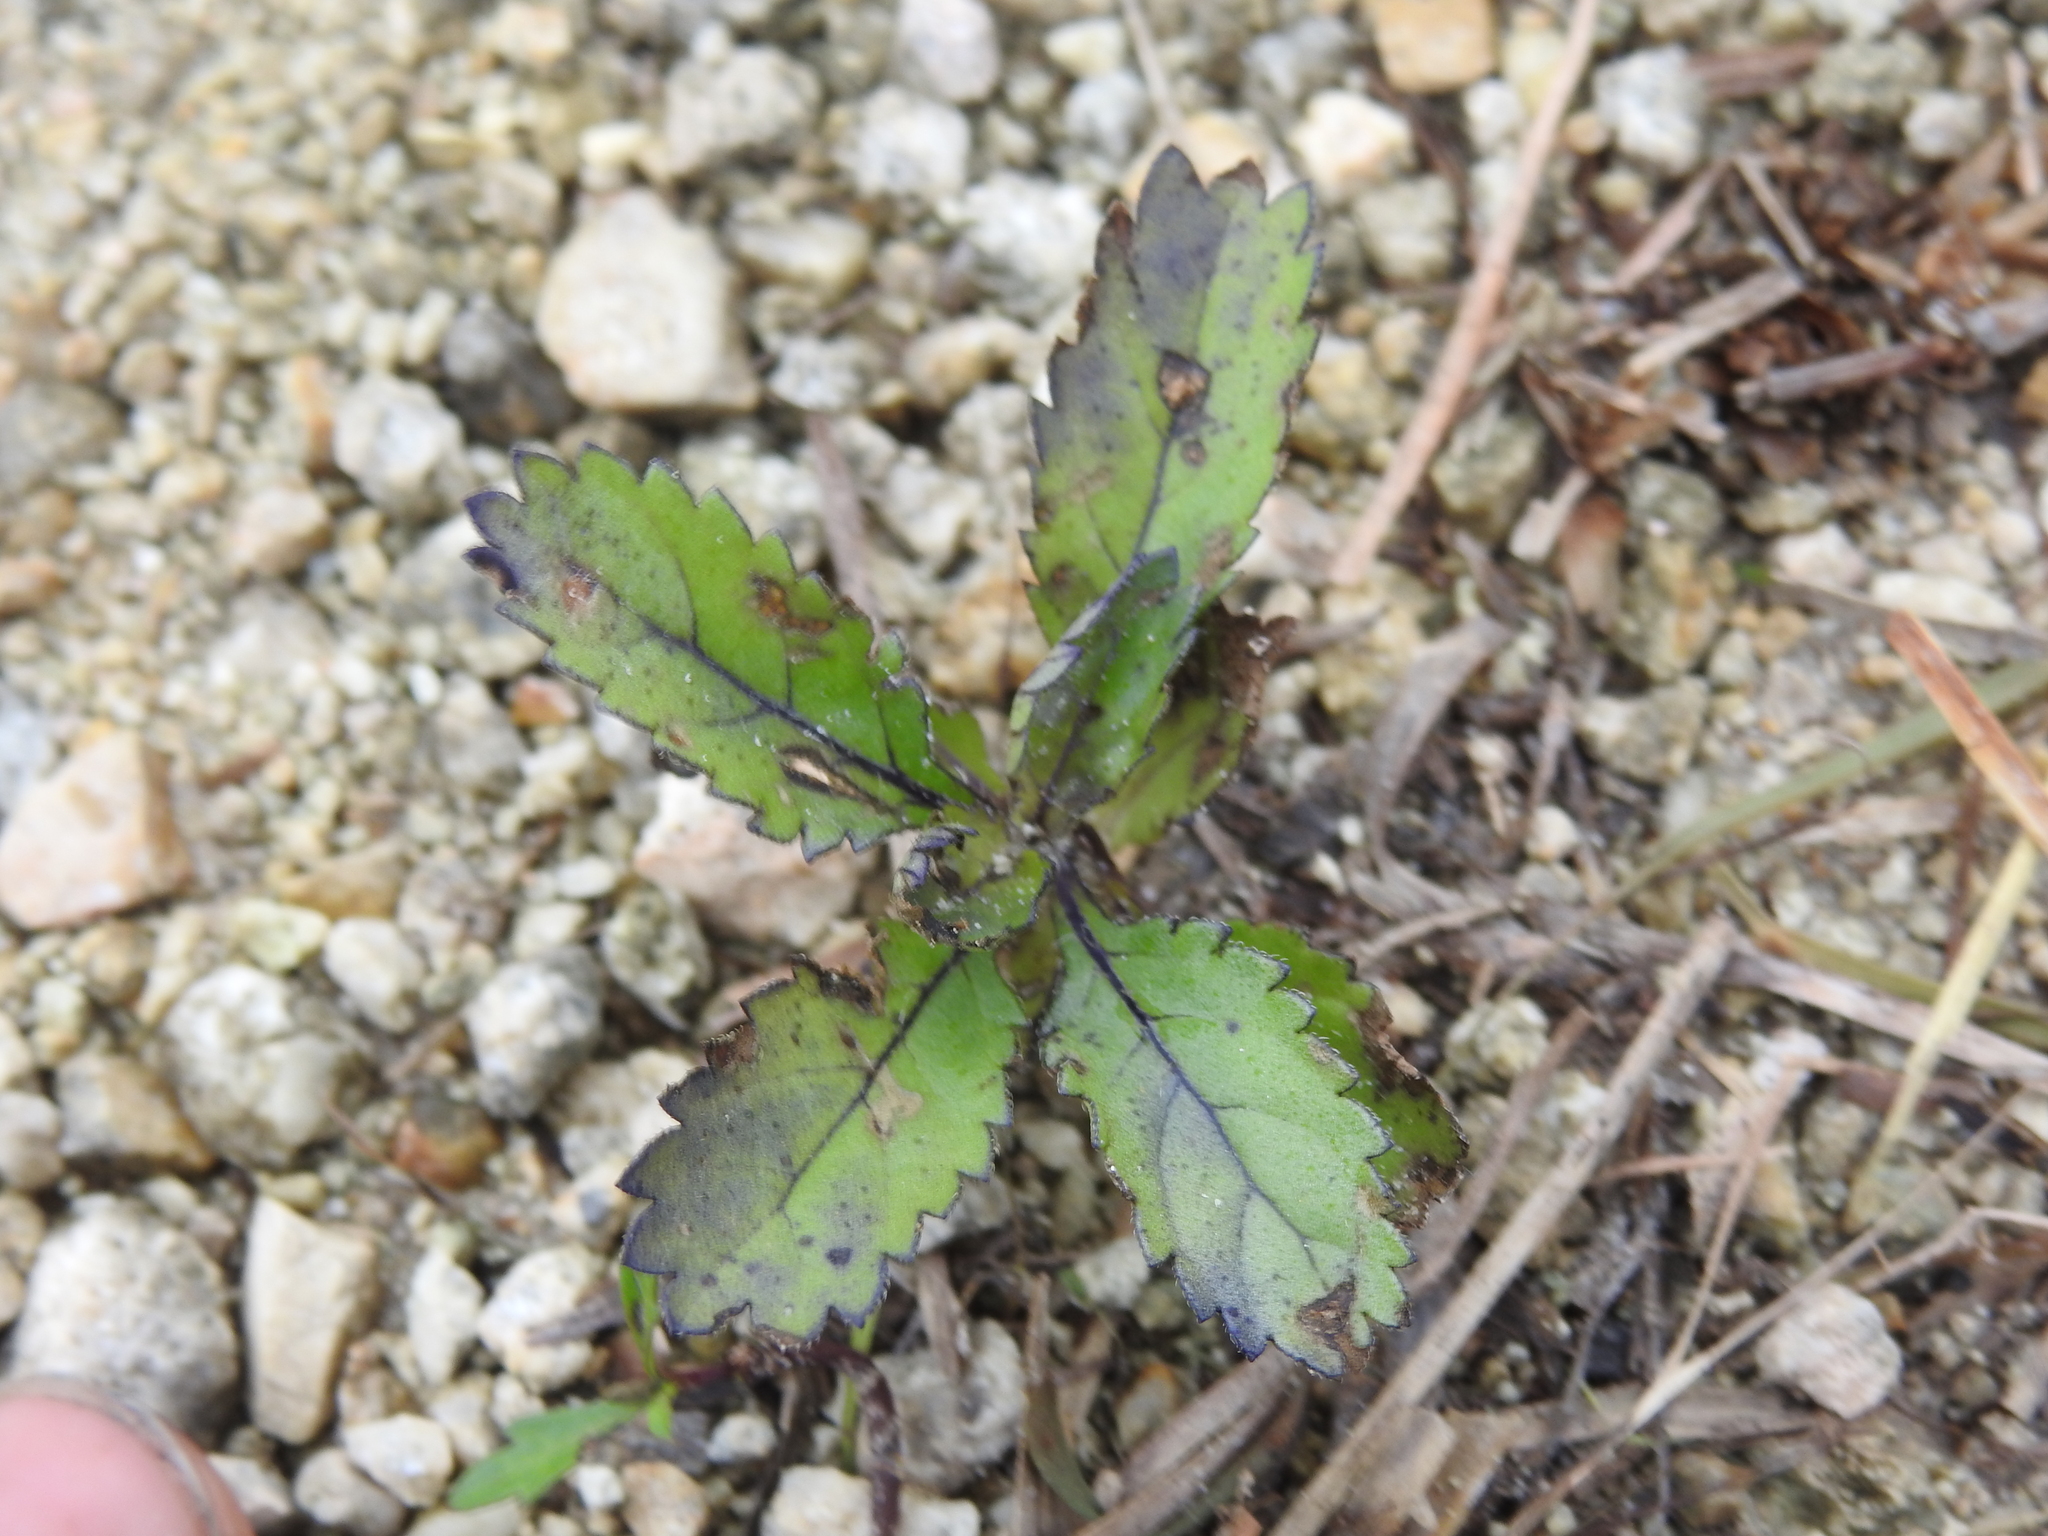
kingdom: Plantae
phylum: Tracheophyta
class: Magnoliopsida
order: Lamiales
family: Verbenaceae
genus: Stachytarpheta
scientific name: Stachytarpheta jamaicensis
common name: Light-blue snakeweed
